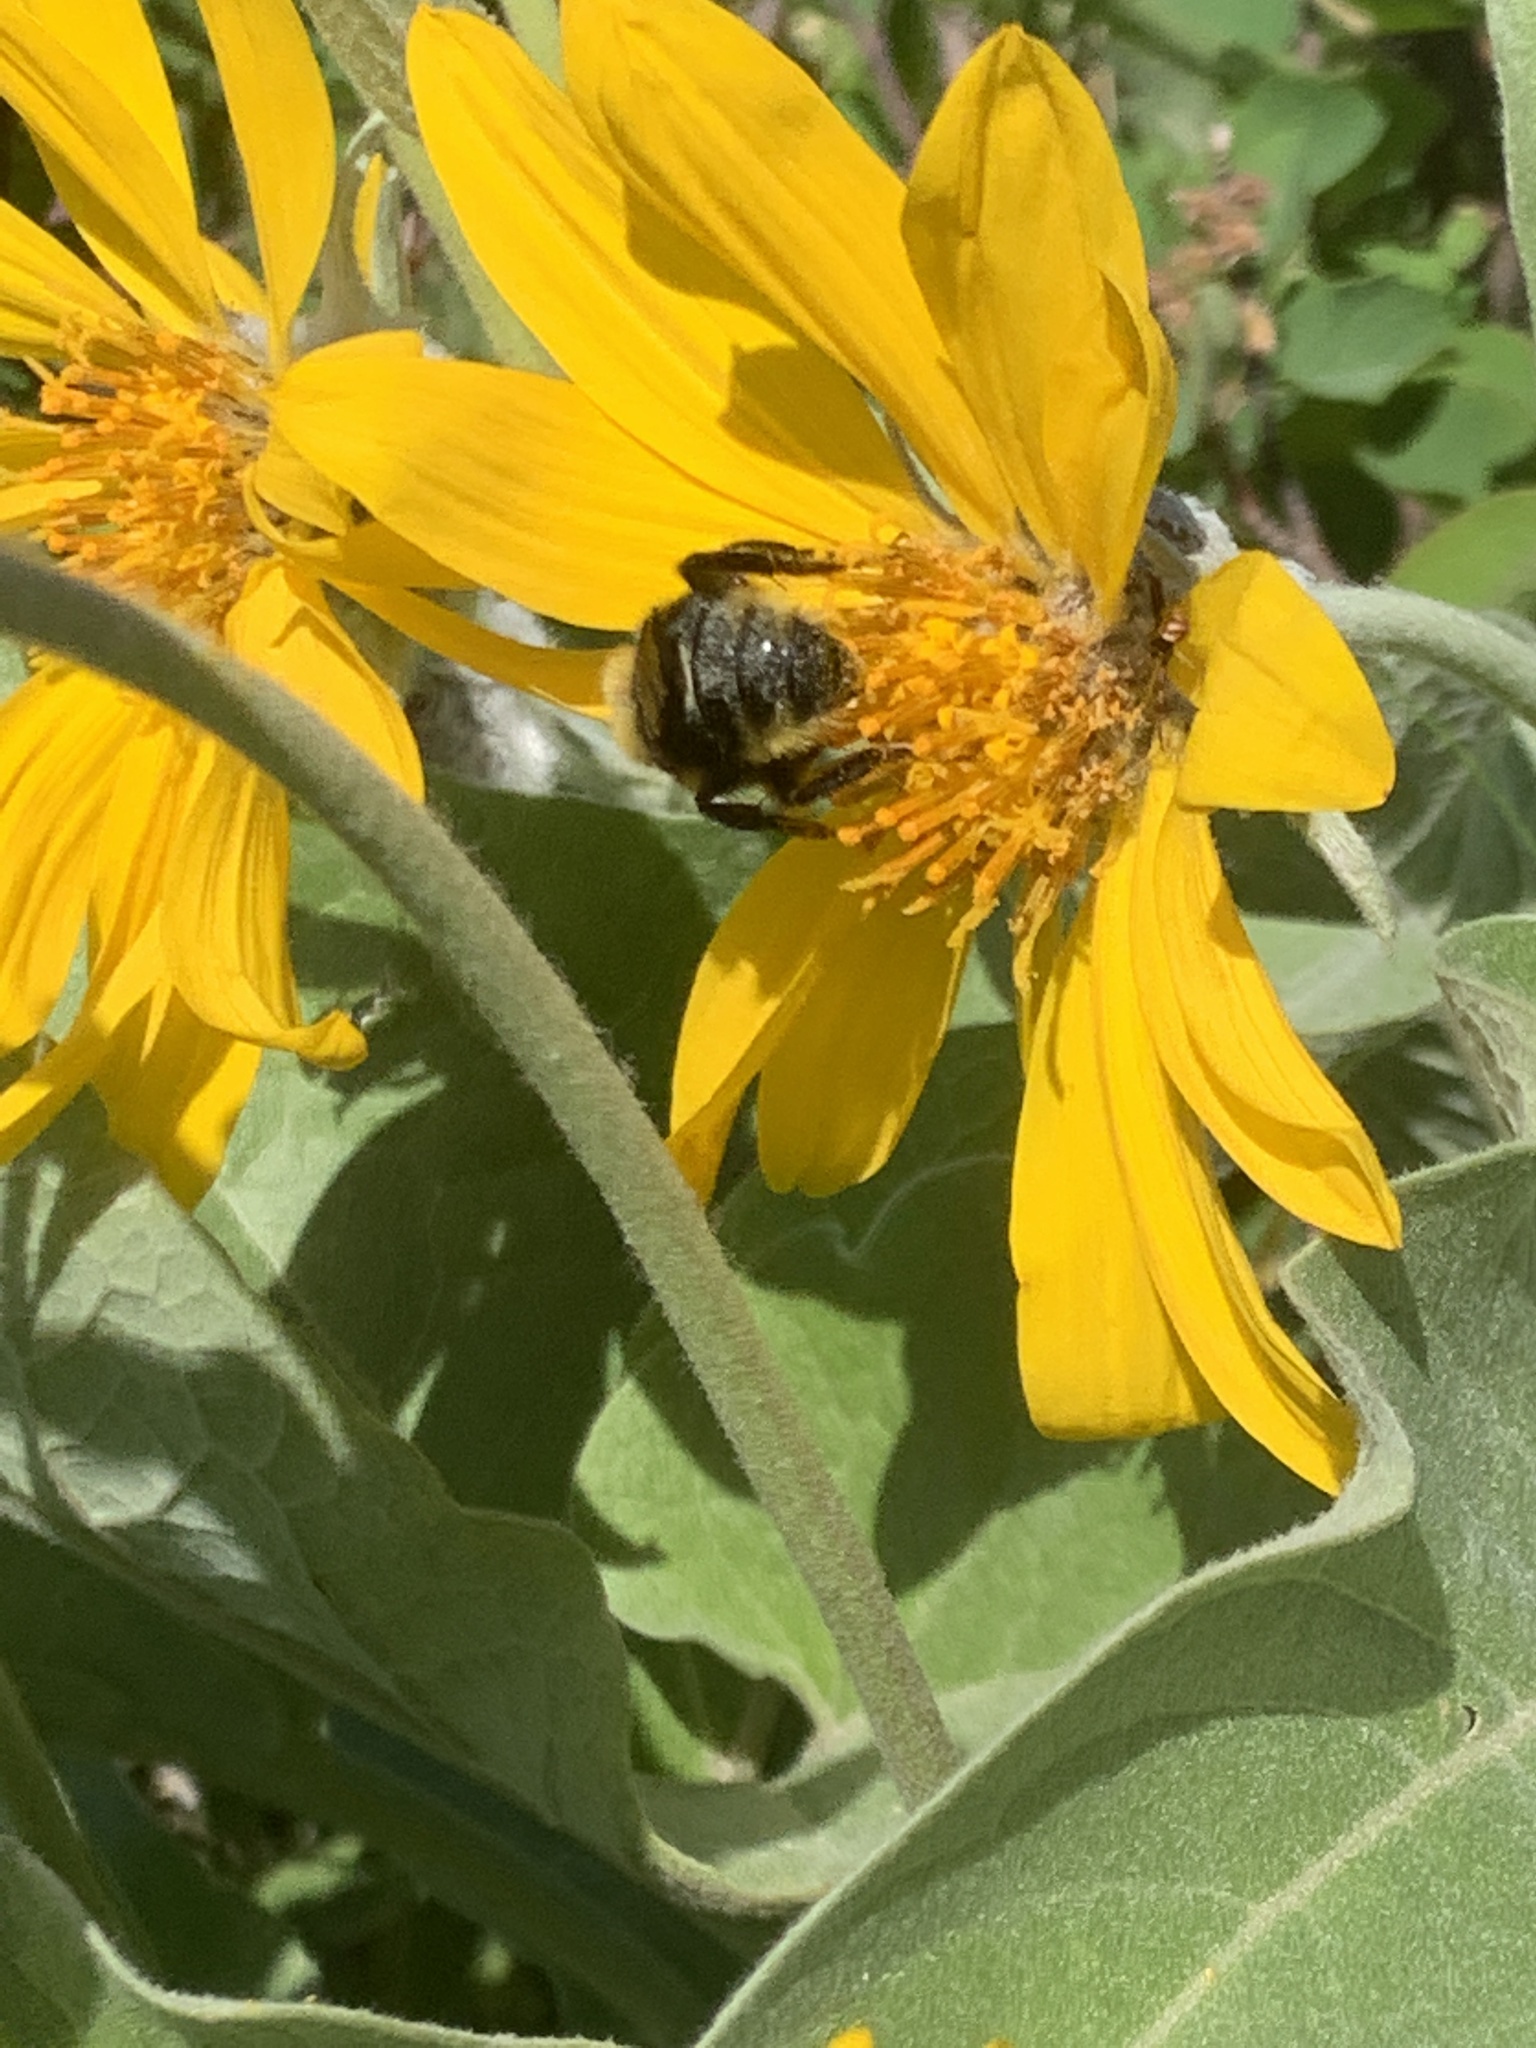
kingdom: Animalia
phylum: Arthropoda
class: Insecta
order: Hymenoptera
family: Apidae
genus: Bombus
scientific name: Bombus insularis
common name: Indiscriminate cuckoo bumble bee
